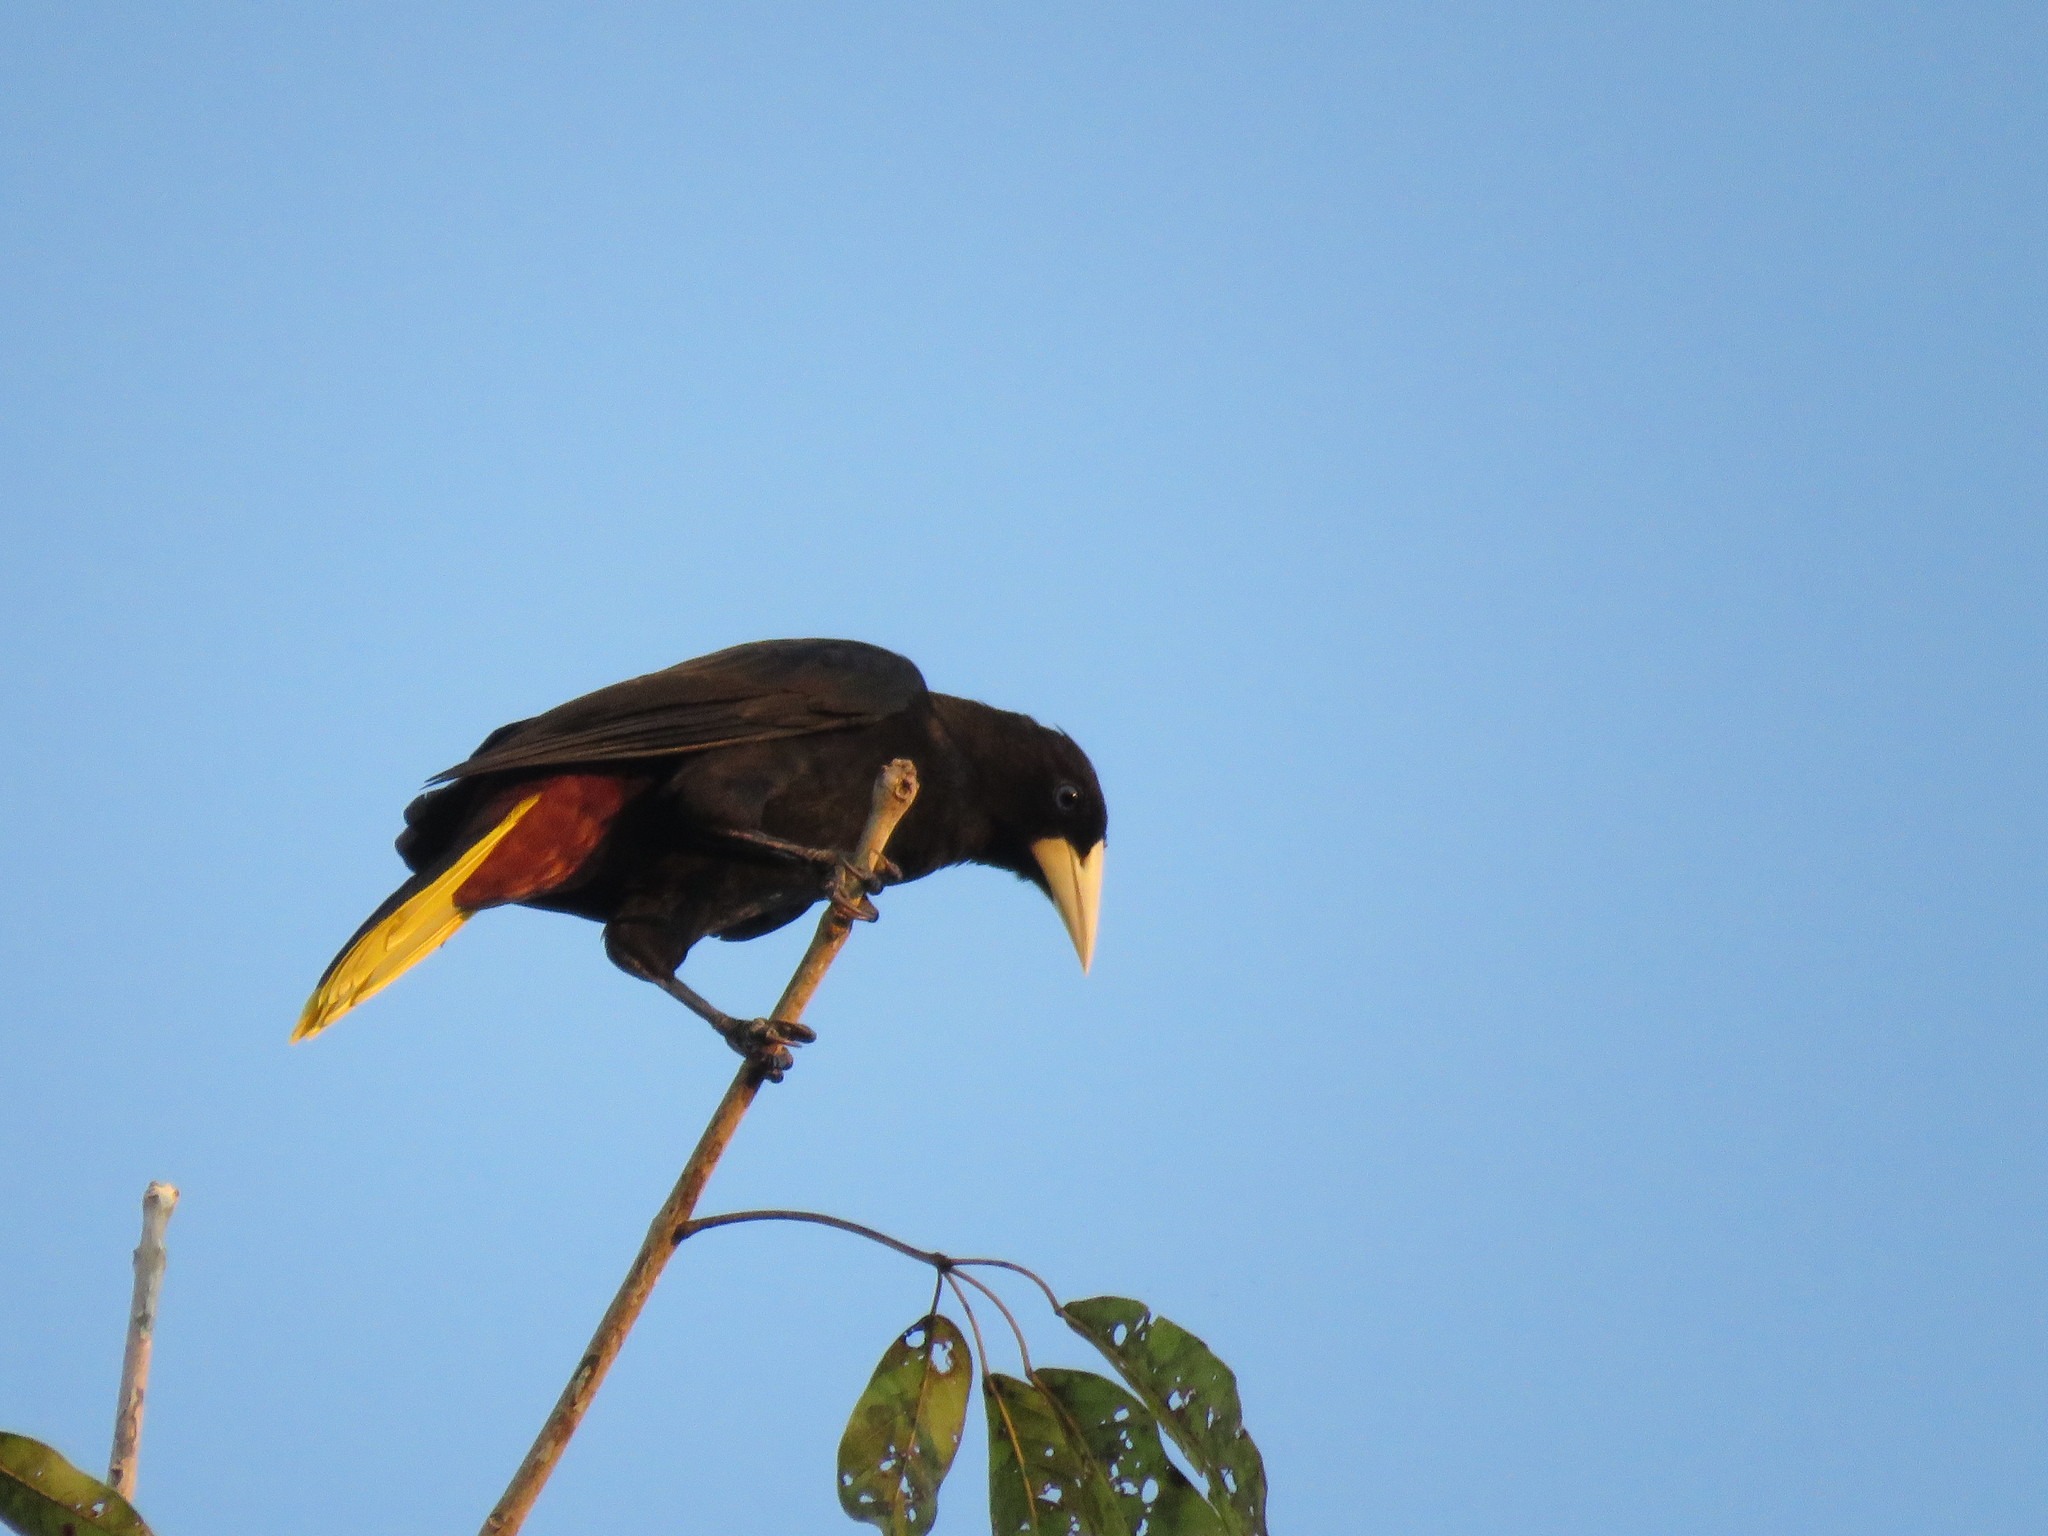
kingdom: Animalia
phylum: Chordata
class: Aves
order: Passeriformes
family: Icteridae
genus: Psarocolius
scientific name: Psarocolius decumanus
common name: Crested oropendola
